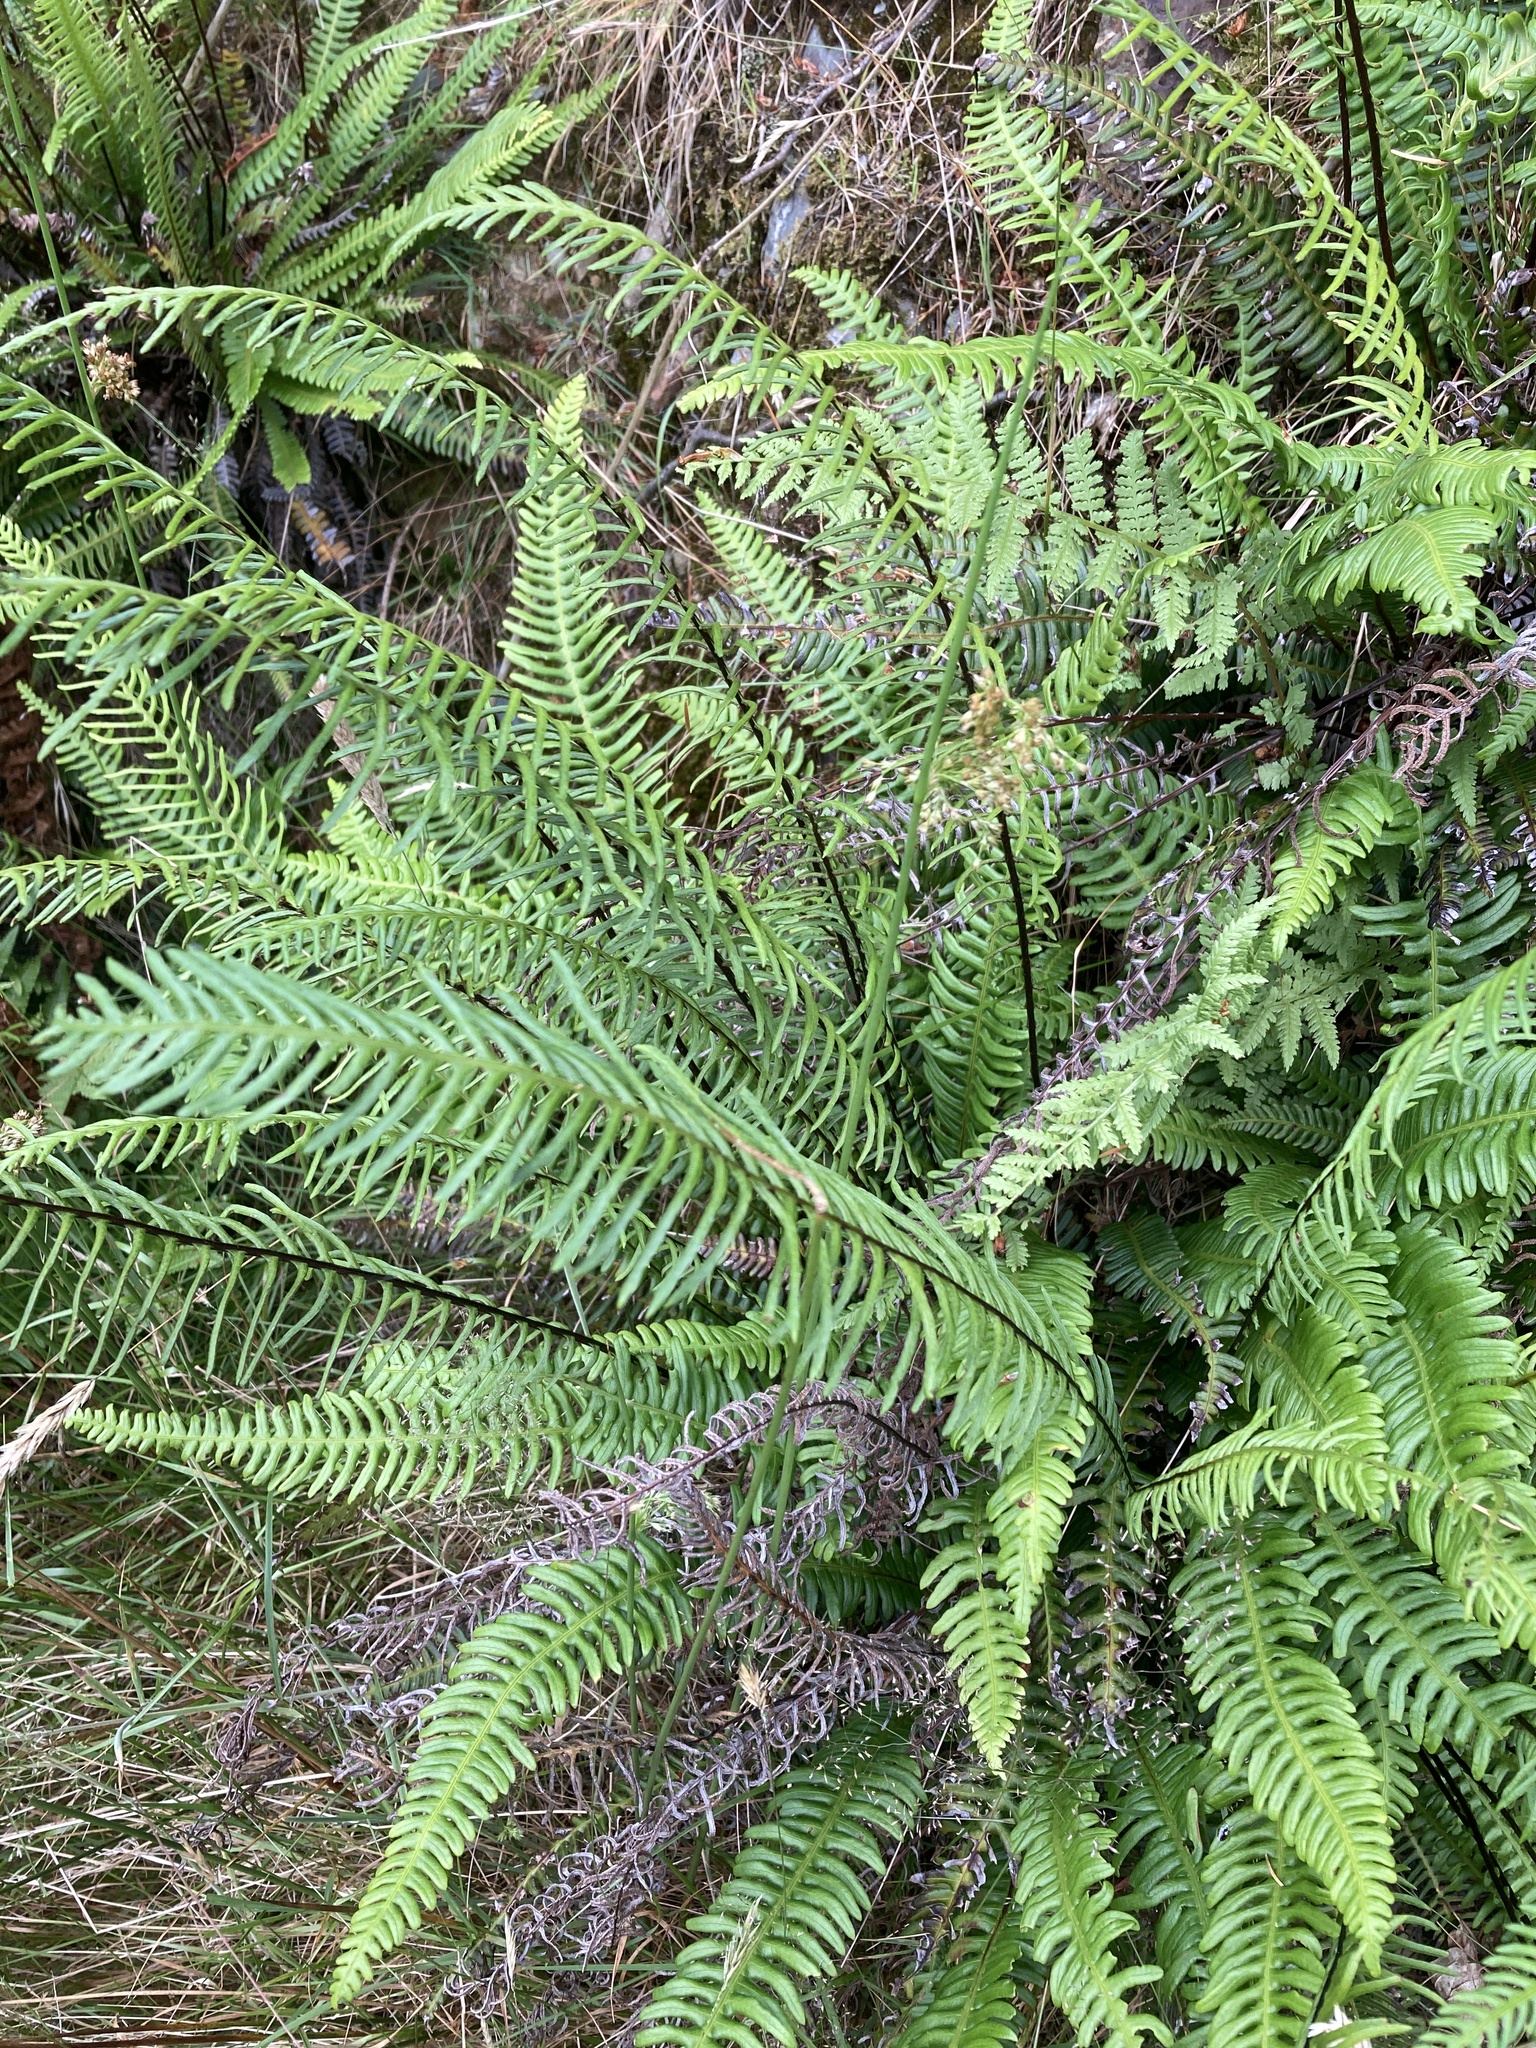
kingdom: Plantae
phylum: Tracheophyta
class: Polypodiopsida
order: Polypodiales
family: Blechnaceae
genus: Struthiopteris
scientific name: Struthiopteris spicant
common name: Deer fern
